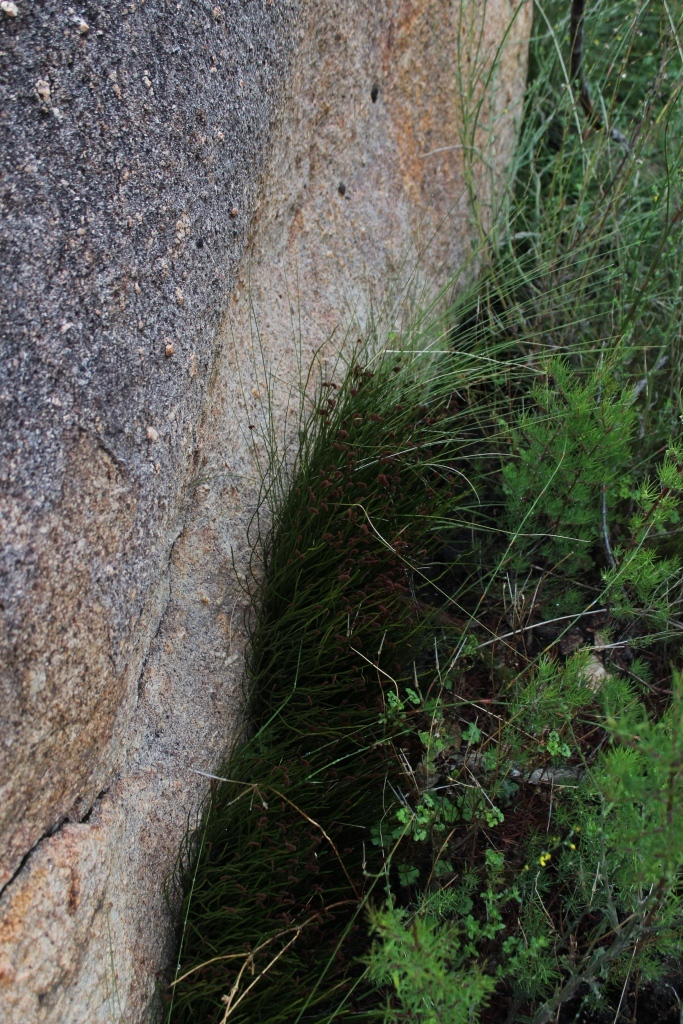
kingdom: Plantae
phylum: Tracheophyta
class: Polypodiopsida
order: Schizaeales
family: Schizaeaceae
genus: Schizaea
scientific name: Schizaea pectinata
